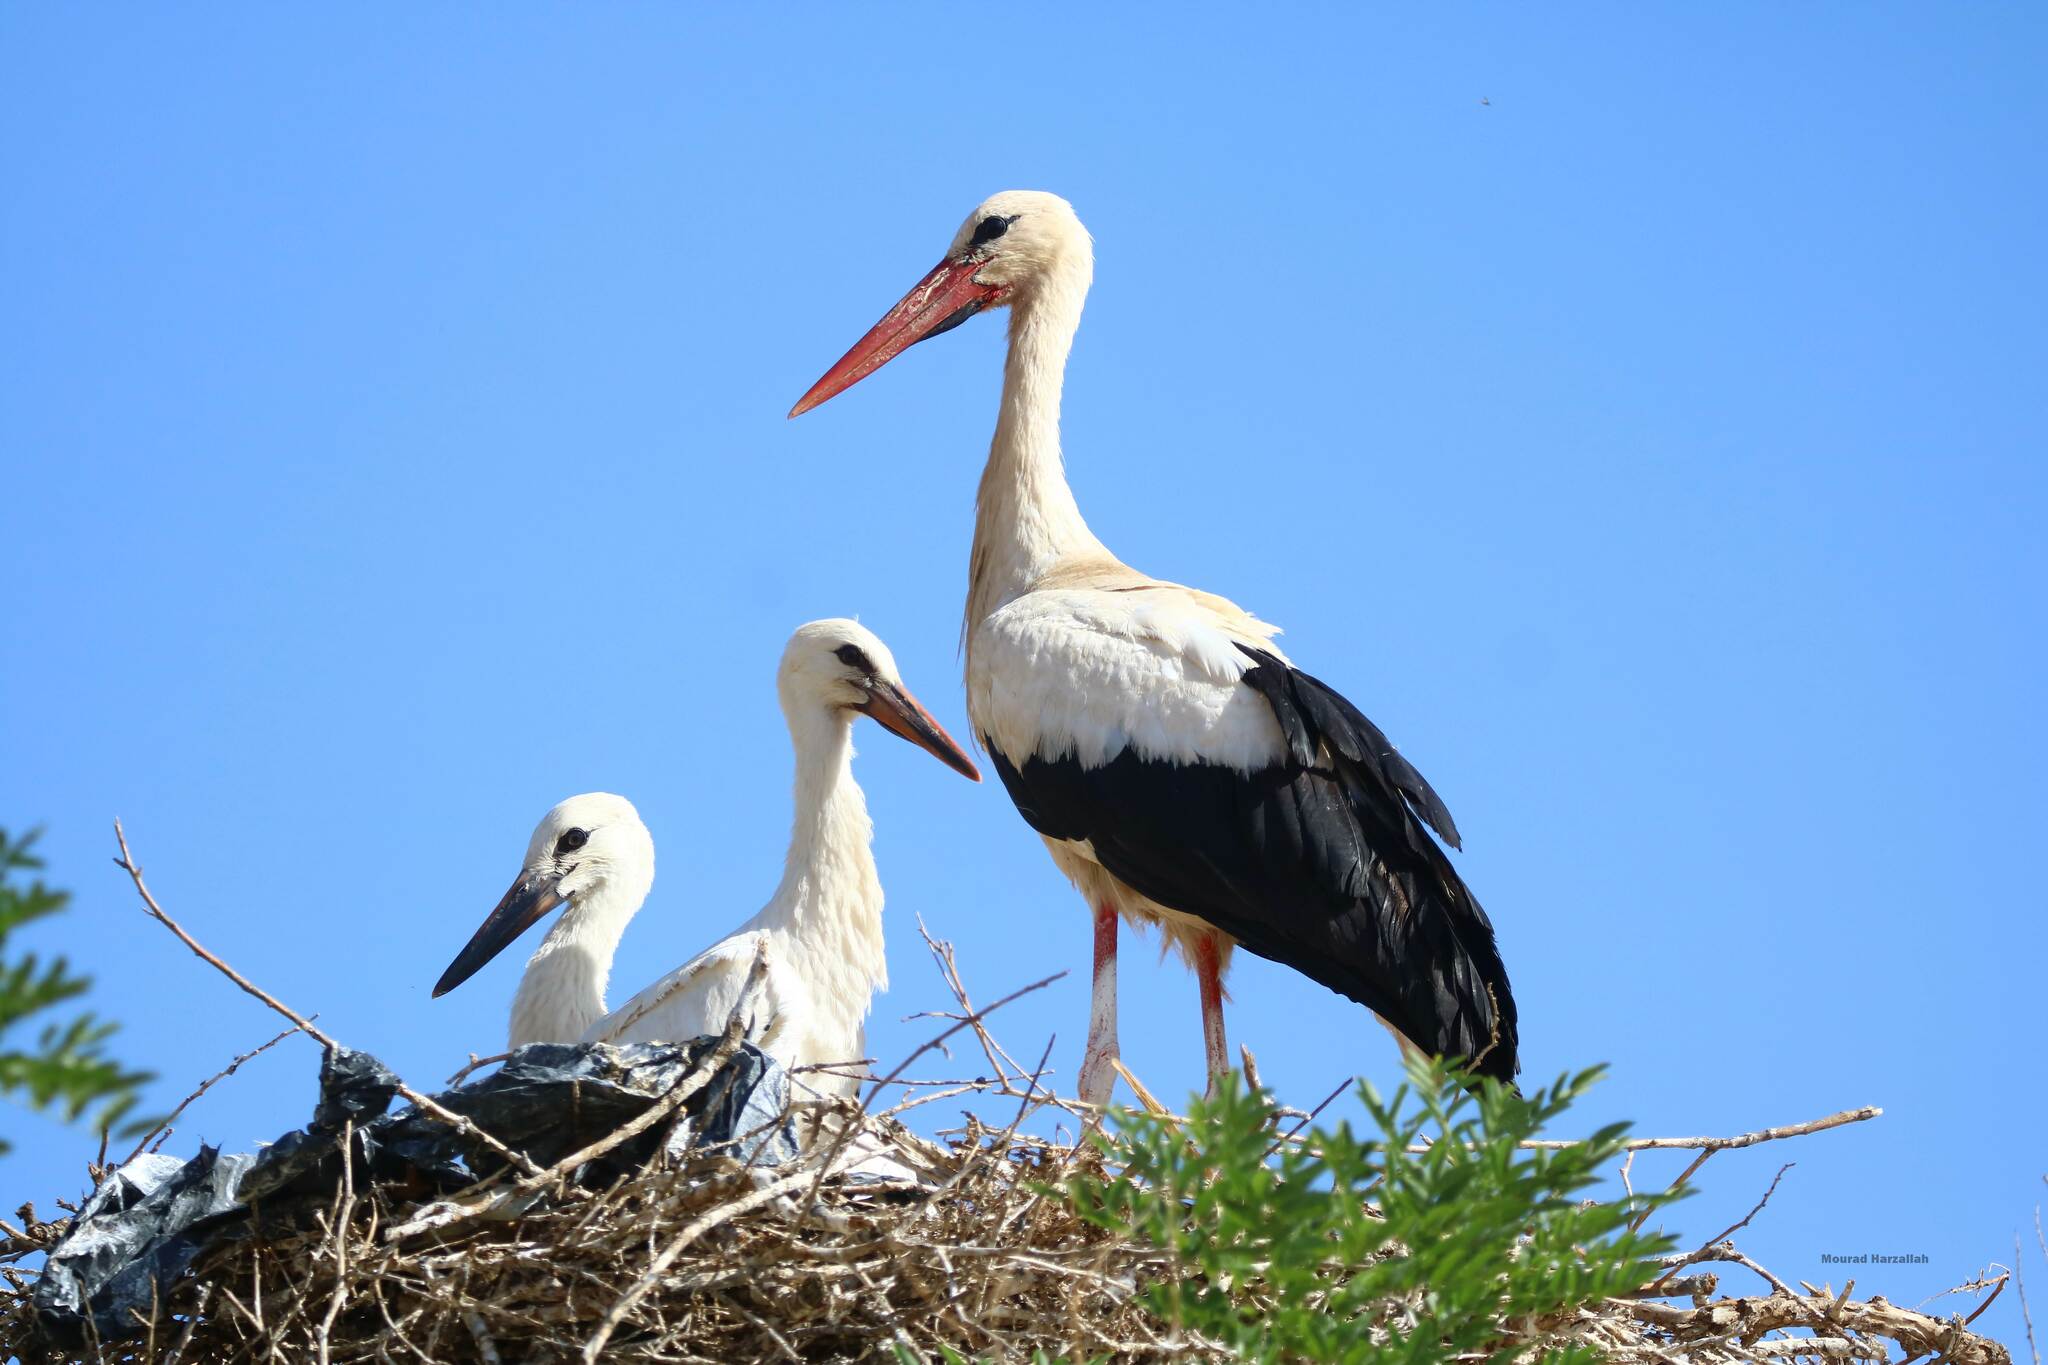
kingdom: Animalia
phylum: Chordata
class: Aves
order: Ciconiiformes
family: Ciconiidae
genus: Ciconia
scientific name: Ciconia ciconia
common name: White stork
